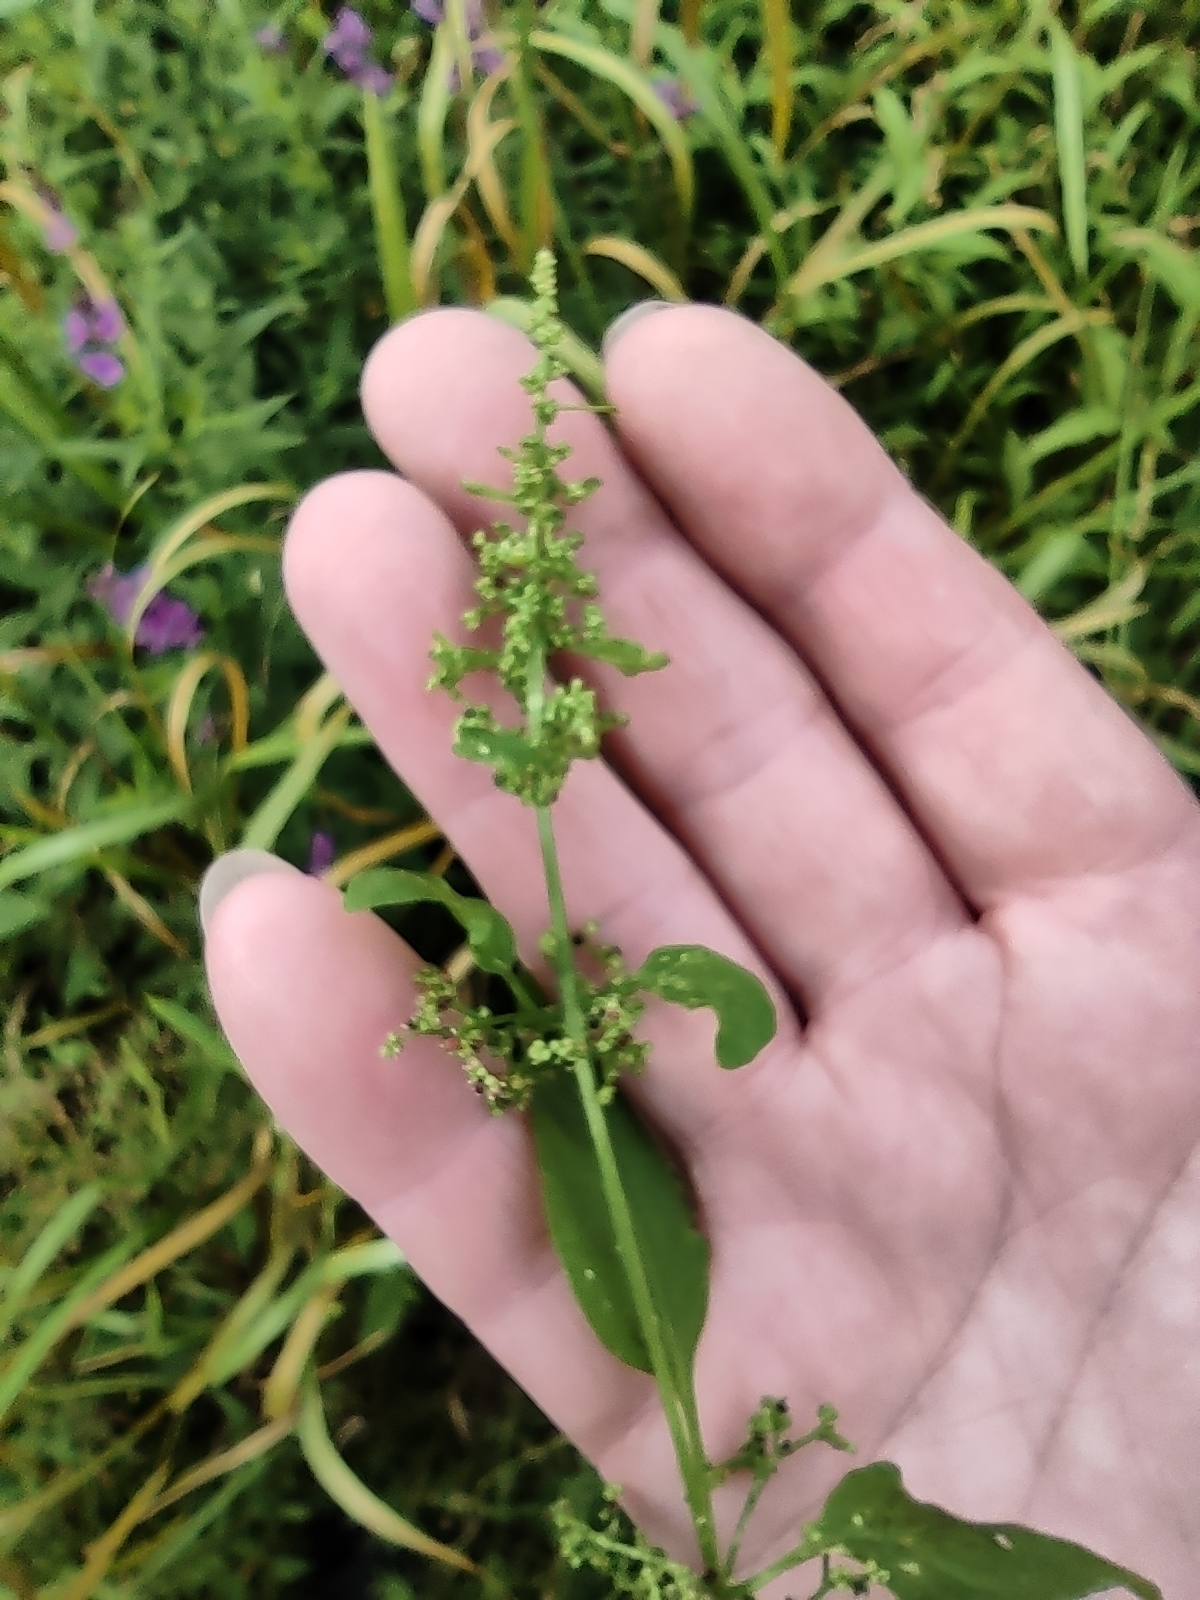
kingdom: Plantae
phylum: Tracheophyta
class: Magnoliopsida
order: Caryophyllales
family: Amaranthaceae
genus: Lipandra
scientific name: Lipandra polysperma
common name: Many-seed goosefoot
